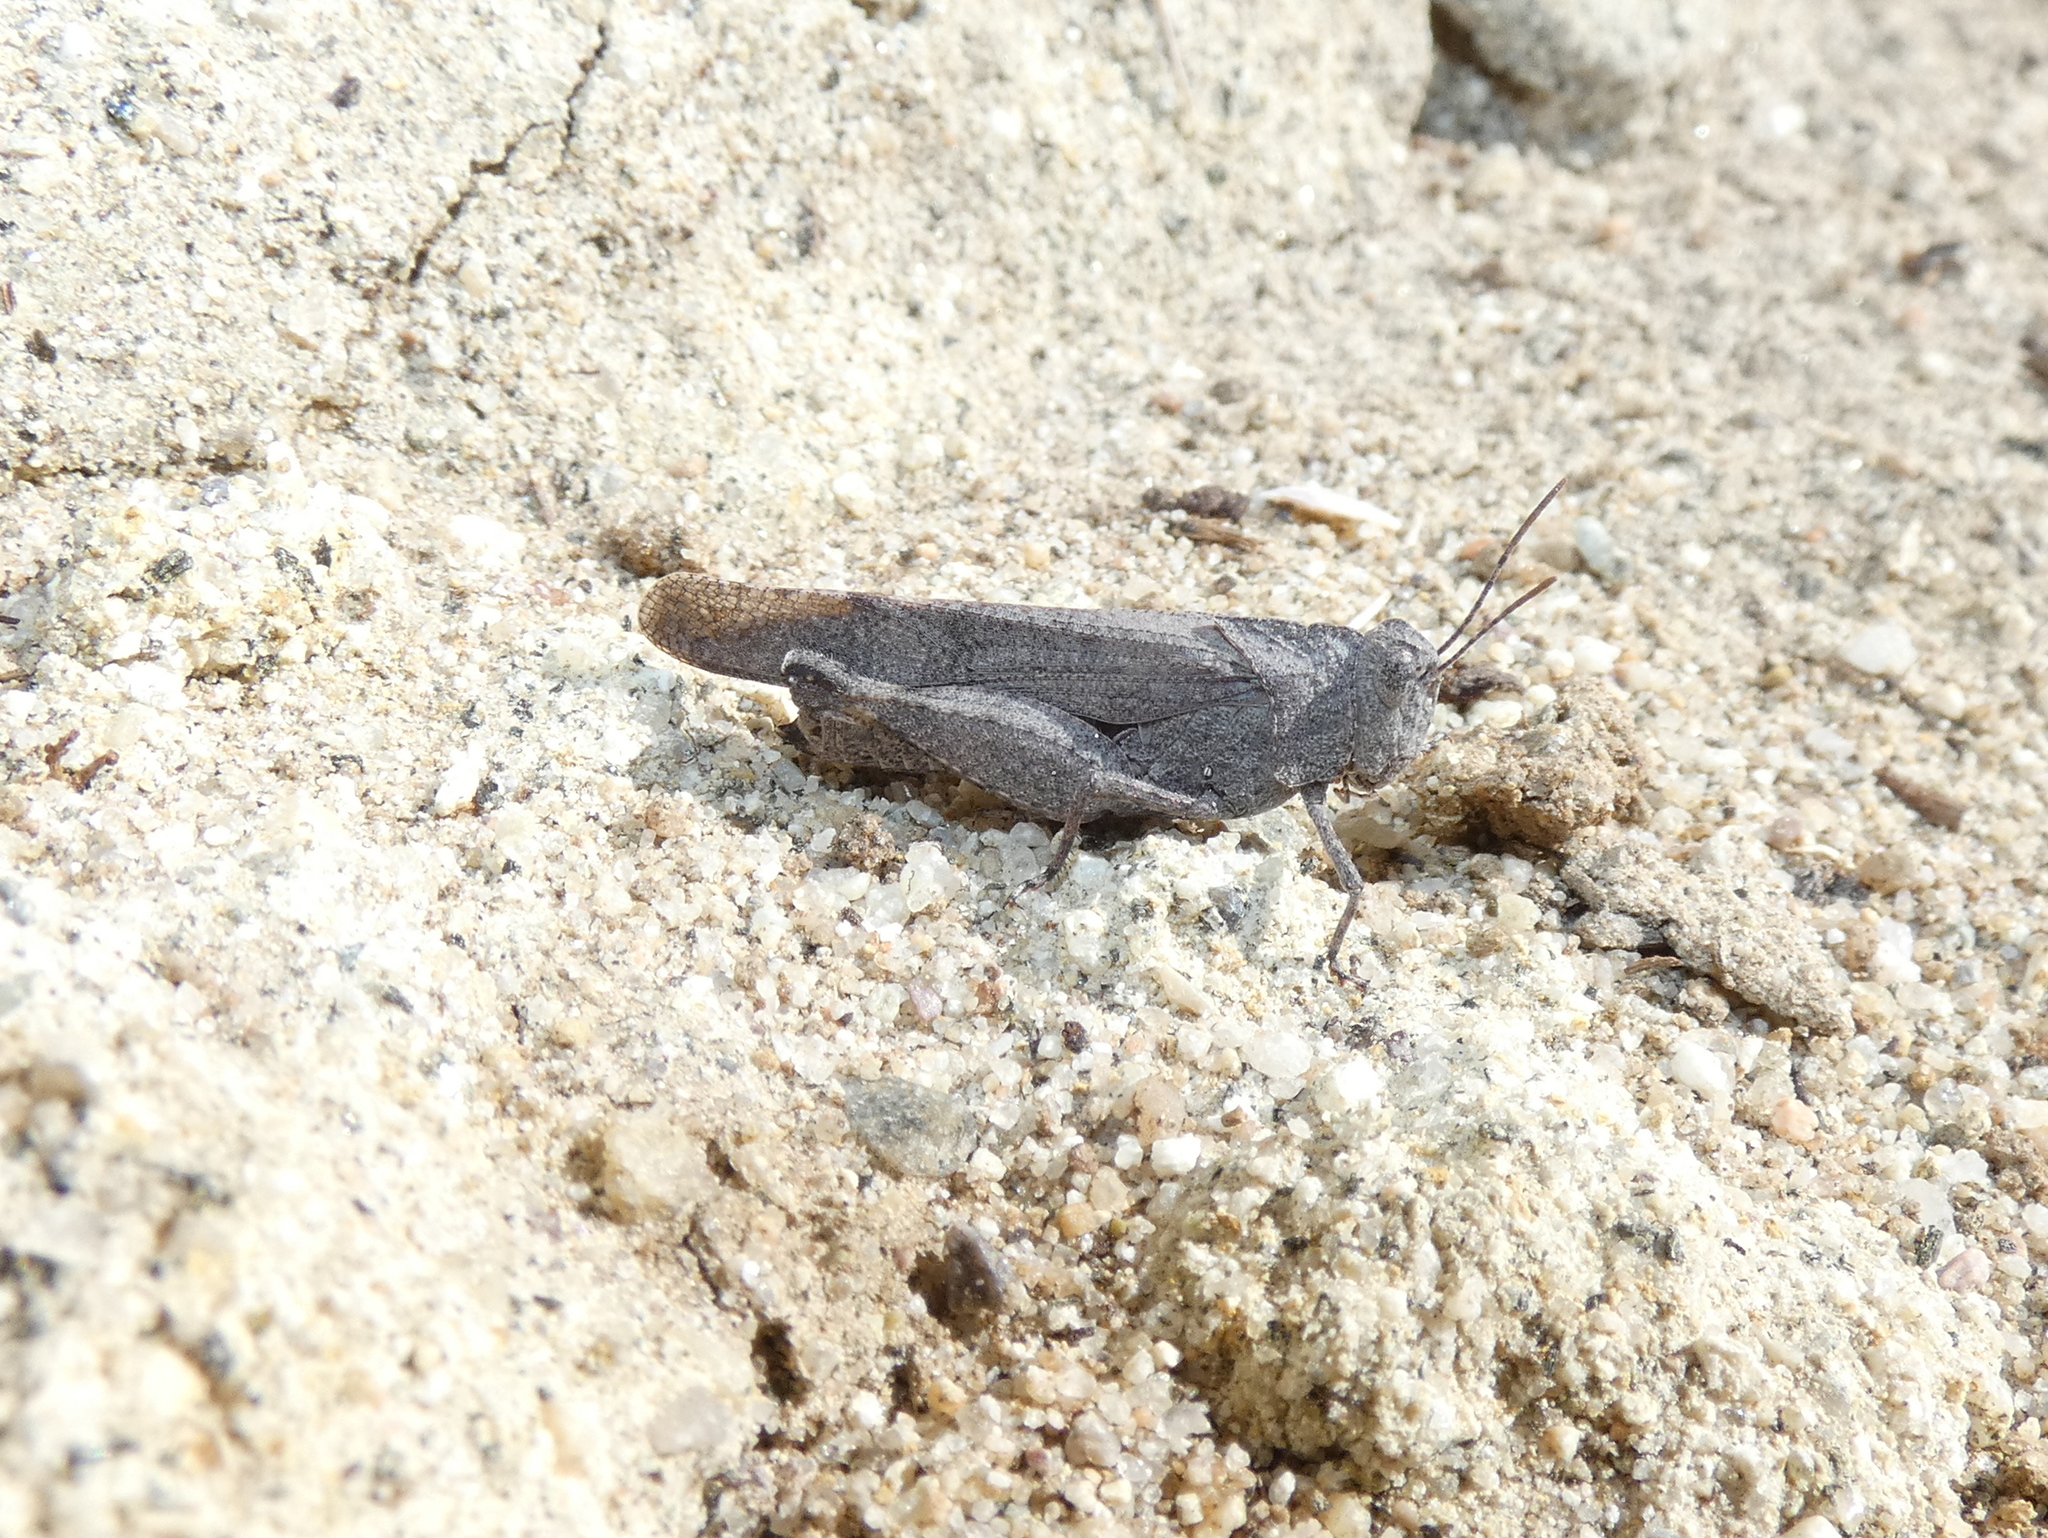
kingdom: Animalia
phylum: Arthropoda
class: Insecta
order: Orthoptera
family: Acrididae
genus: Lactista
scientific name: Lactista gibbosus
